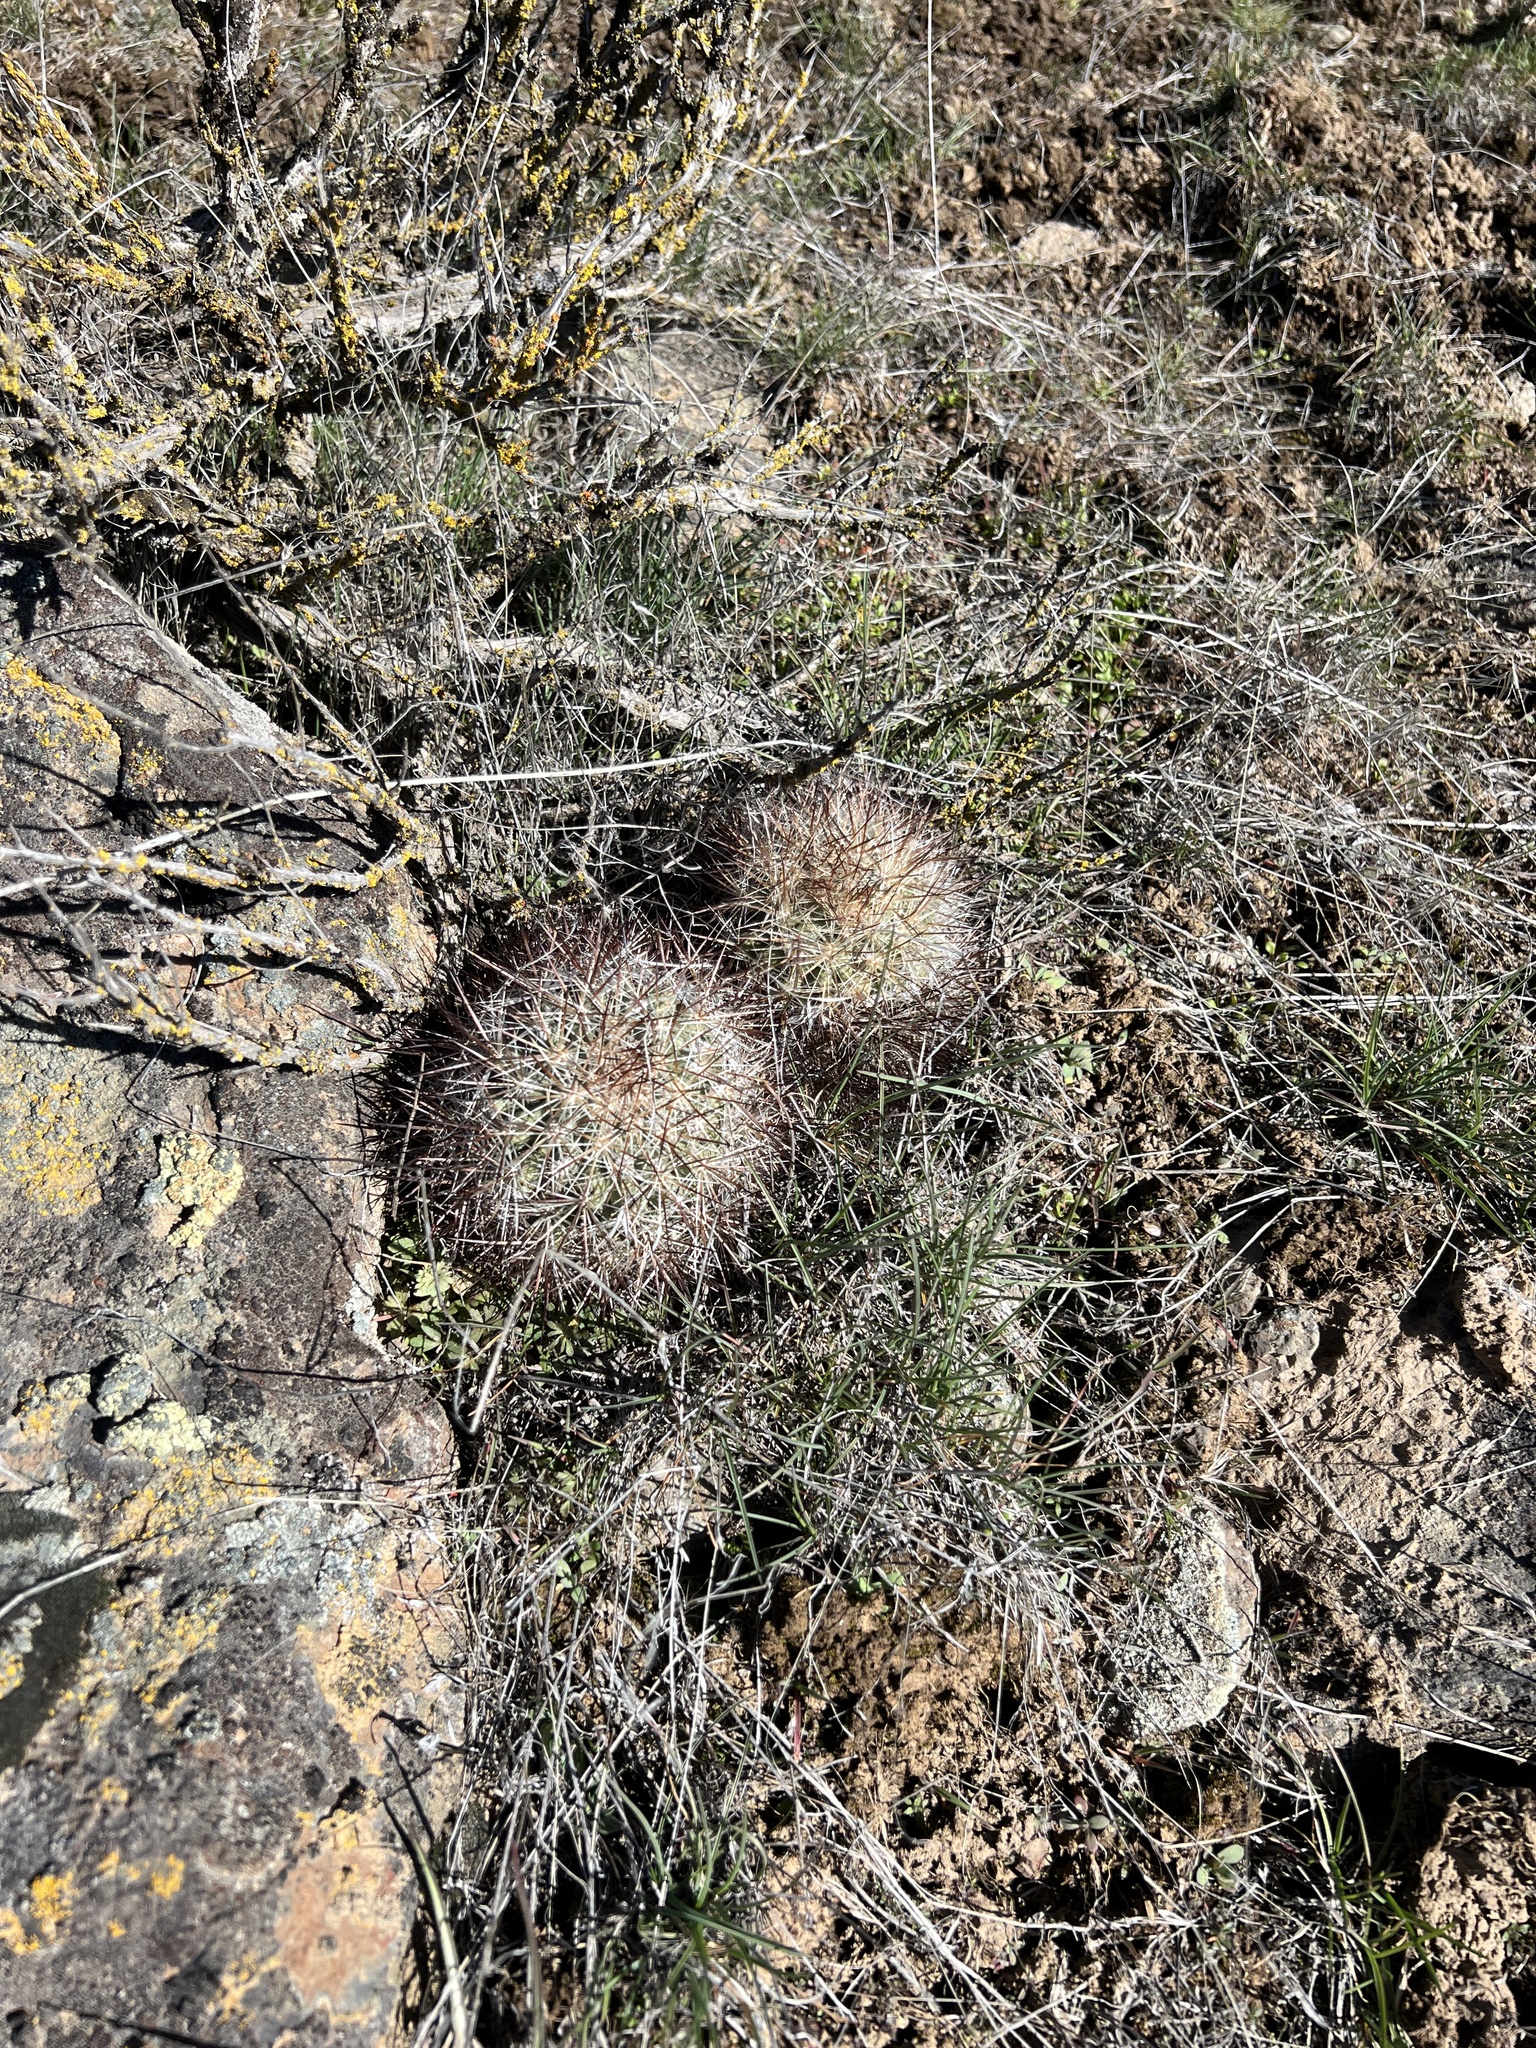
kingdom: Plantae
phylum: Tracheophyta
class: Magnoliopsida
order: Caryophyllales
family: Cactaceae
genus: Pediocactus
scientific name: Pediocactus nigrispinus
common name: Simpson's hedgehog cactus
